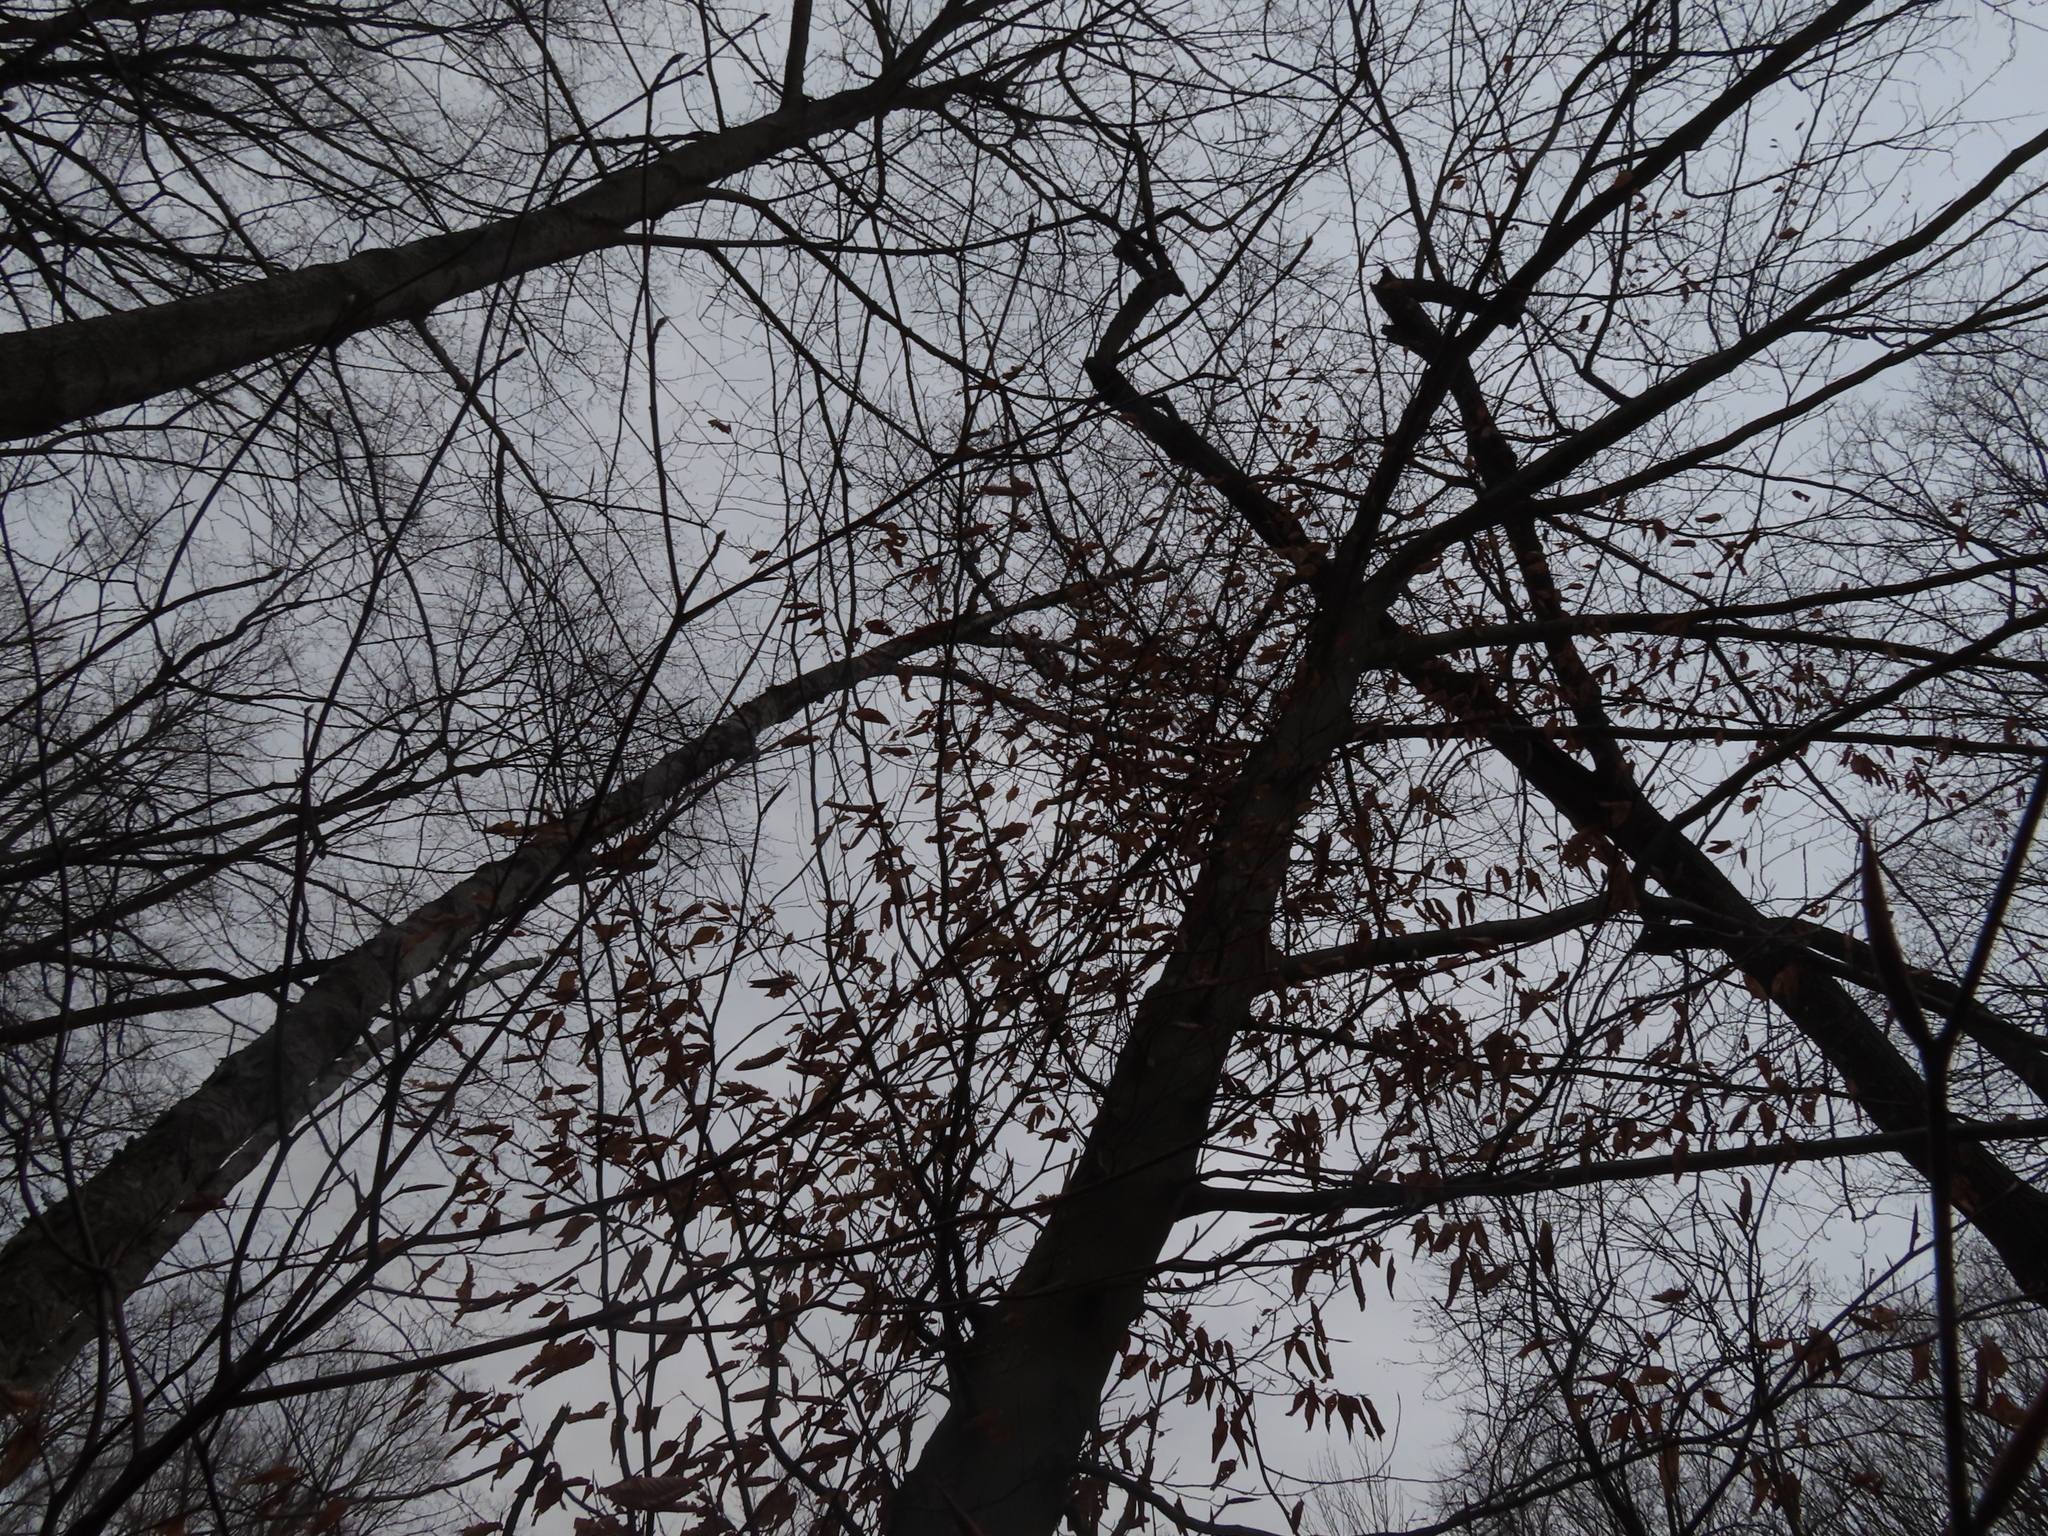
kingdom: Plantae
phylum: Tracheophyta
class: Magnoliopsida
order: Fagales
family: Fagaceae
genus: Fagus
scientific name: Fagus grandifolia
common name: American beech
